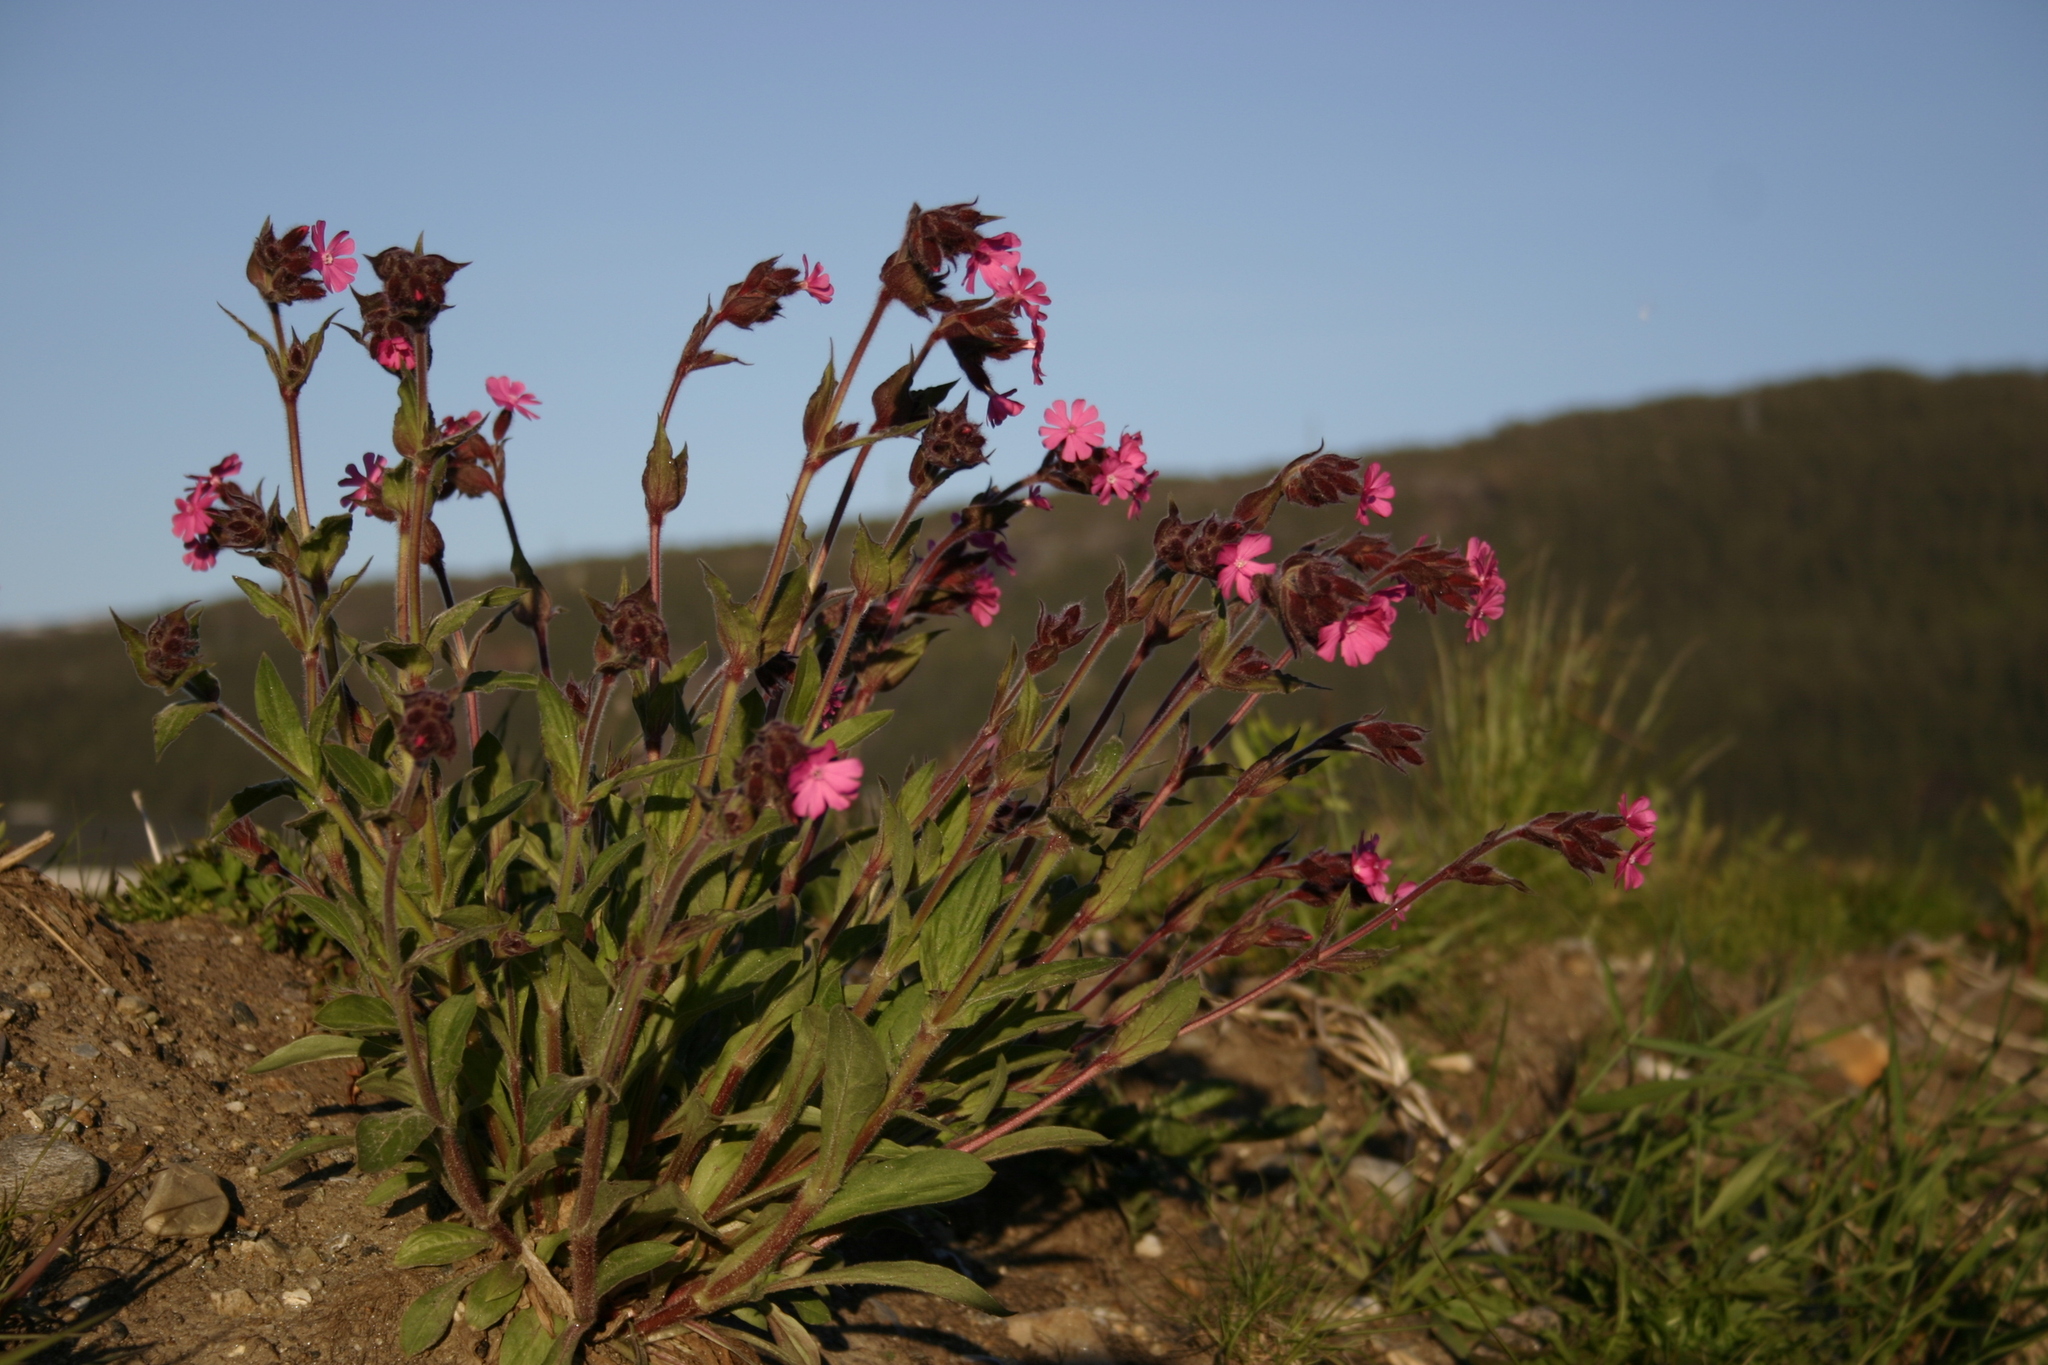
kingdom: Plantae
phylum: Tracheophyta
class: Magnoliopsida
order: Caryophyllales
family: Caryophyllaceae
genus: Silene
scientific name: Silene dioica
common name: Red campion
